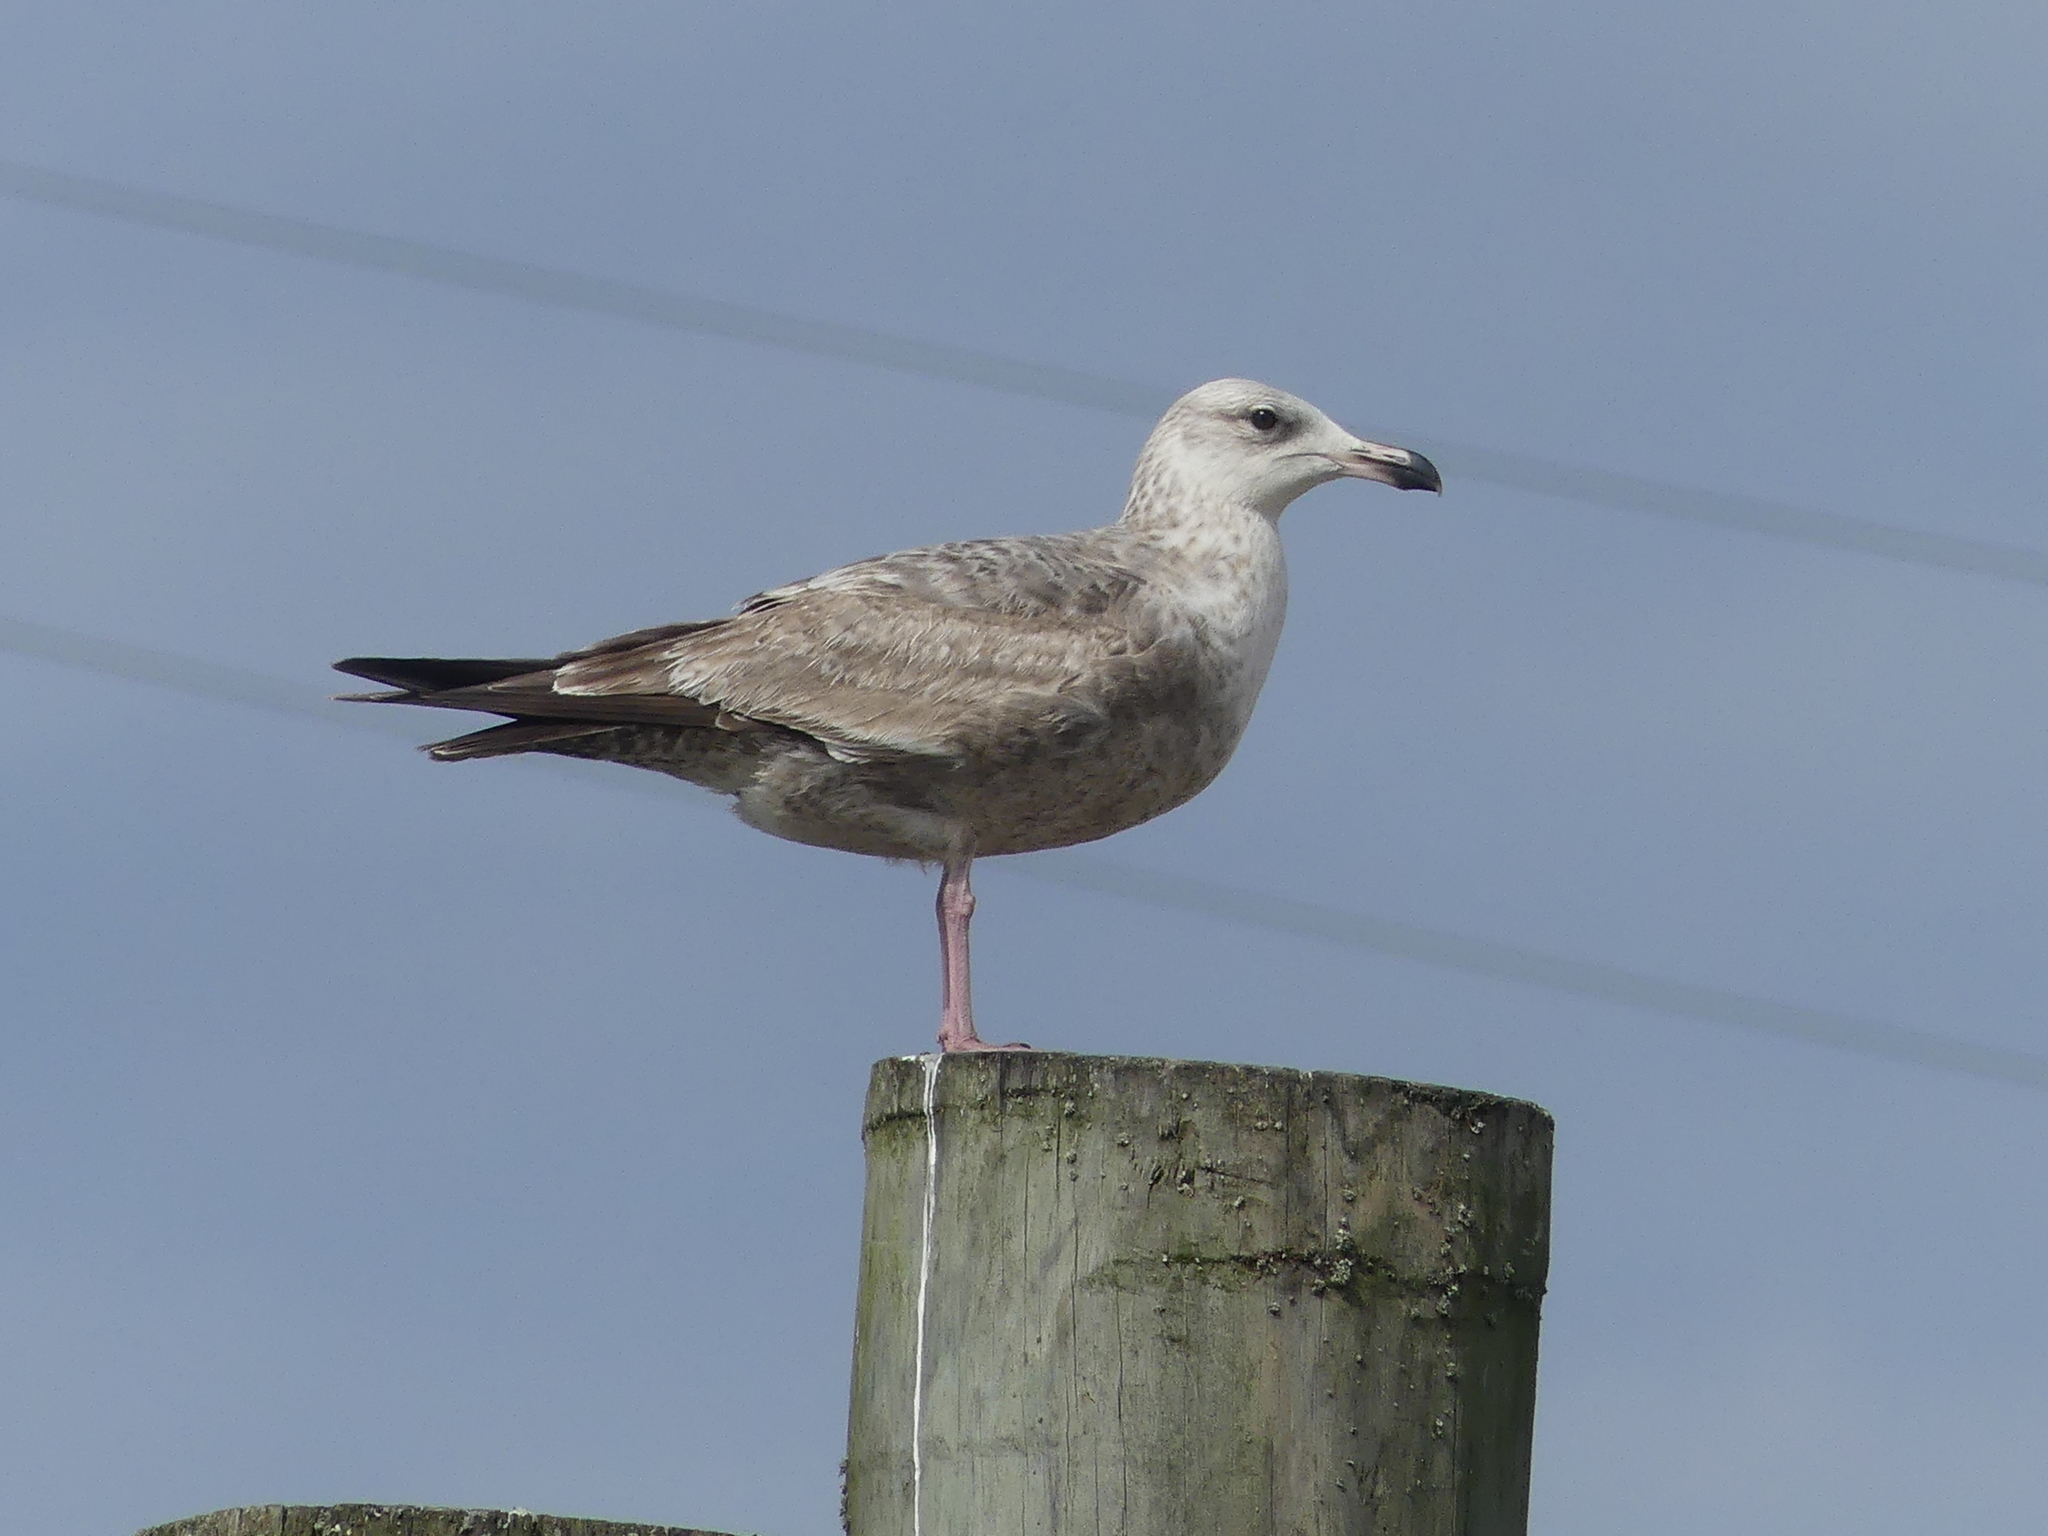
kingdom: Animalia
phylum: Chordata
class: Aves
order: Charadriiformes
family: Laridae
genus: Larus
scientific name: Larus argentatus
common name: Herring gull
